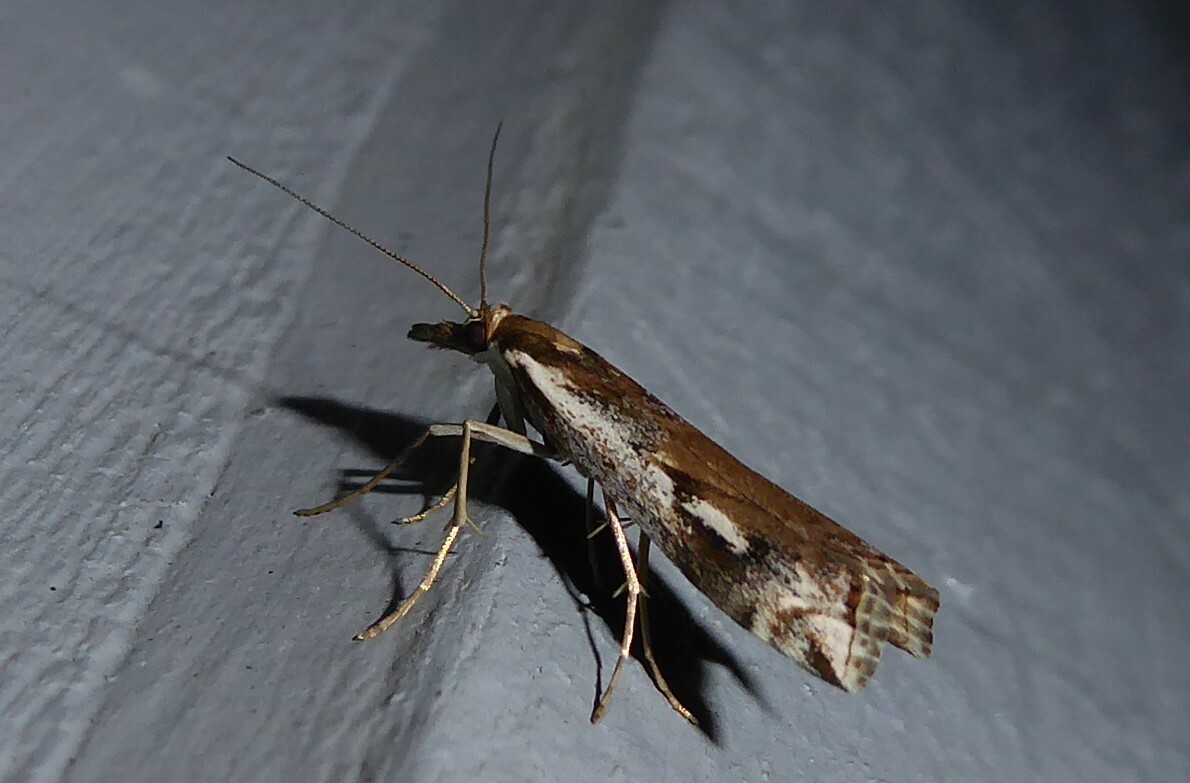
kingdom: Animalia
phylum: Arthropoda
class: Insecta
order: Lepidoptera
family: Crambidae
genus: Orocrambus
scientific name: Orocrambus vulgaris
